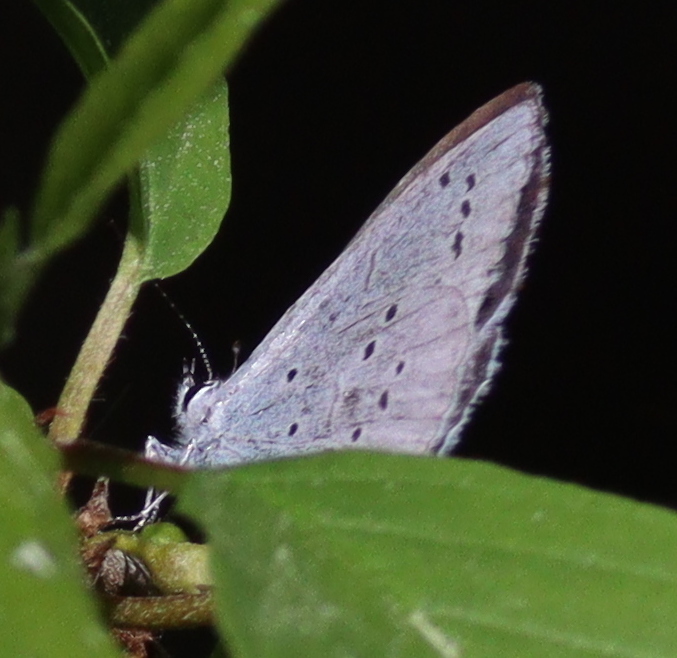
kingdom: Animalia
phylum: Arthropoda
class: Insecta
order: Lepidoptera
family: Lycaenidae
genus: Celastrina
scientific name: Celastrina argiolus
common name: Holly blue
